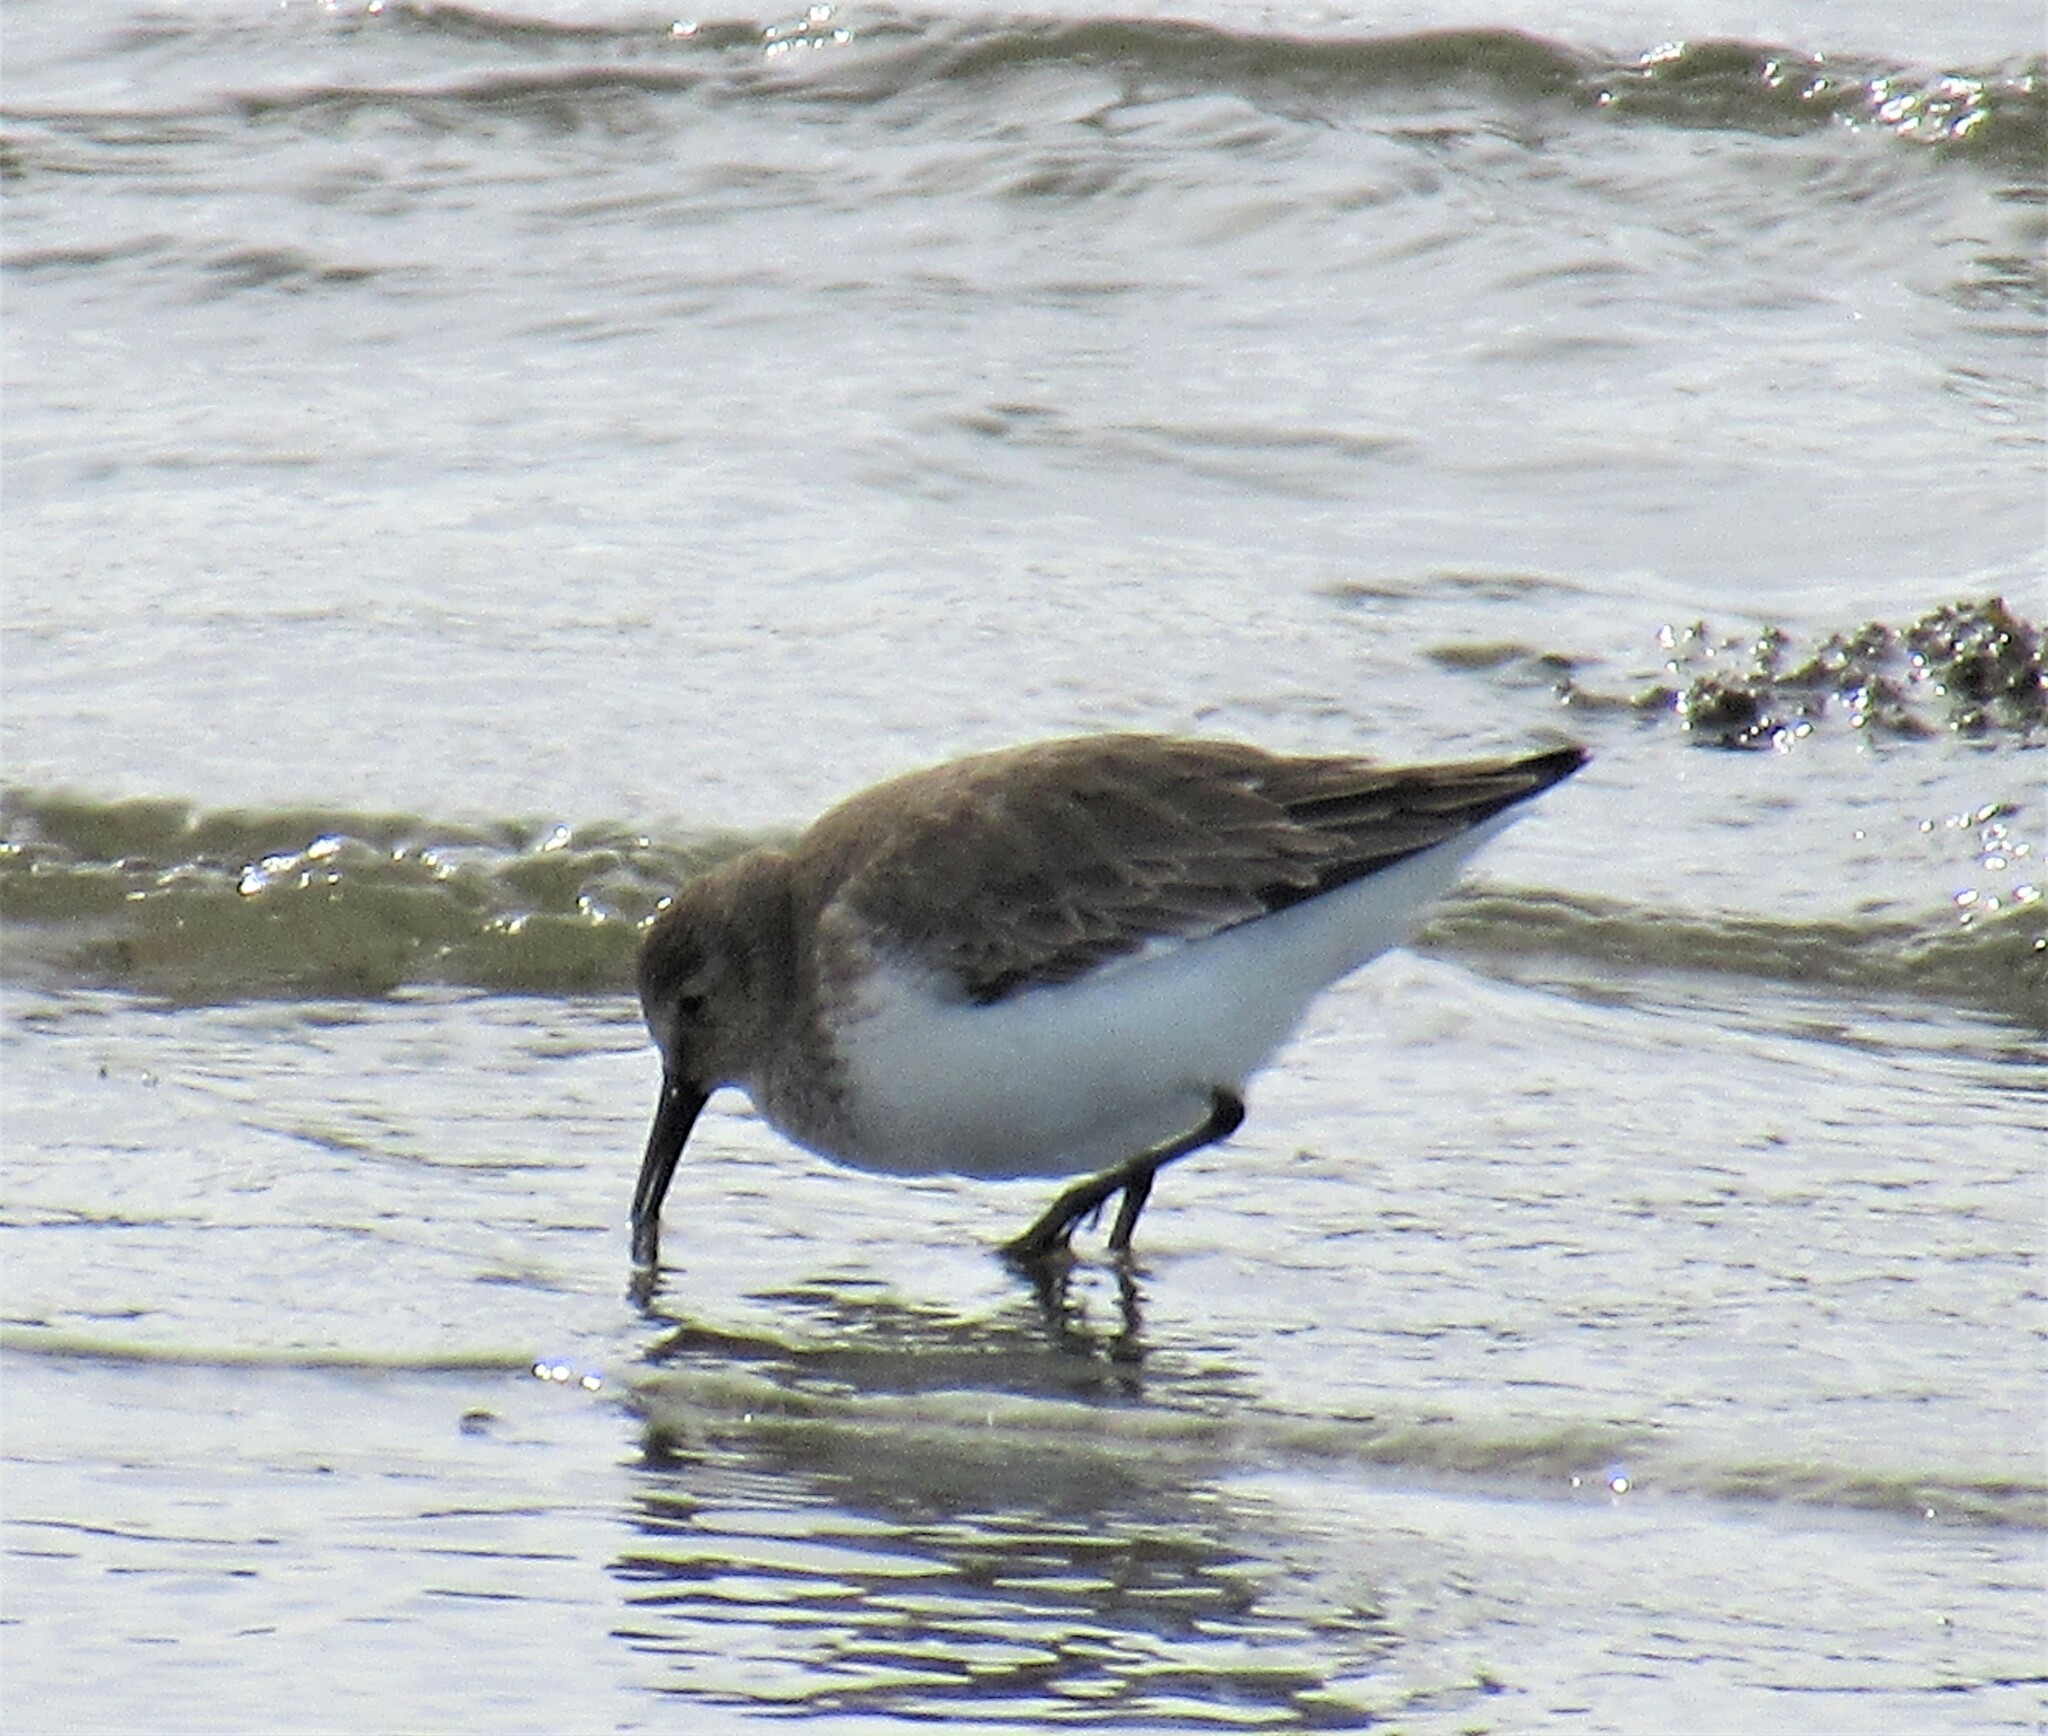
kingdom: Animalia
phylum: Chordata
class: Aves
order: Charadriiformes
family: Scolopacidae
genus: Calidris
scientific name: Calidris alpina
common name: Dunlin
